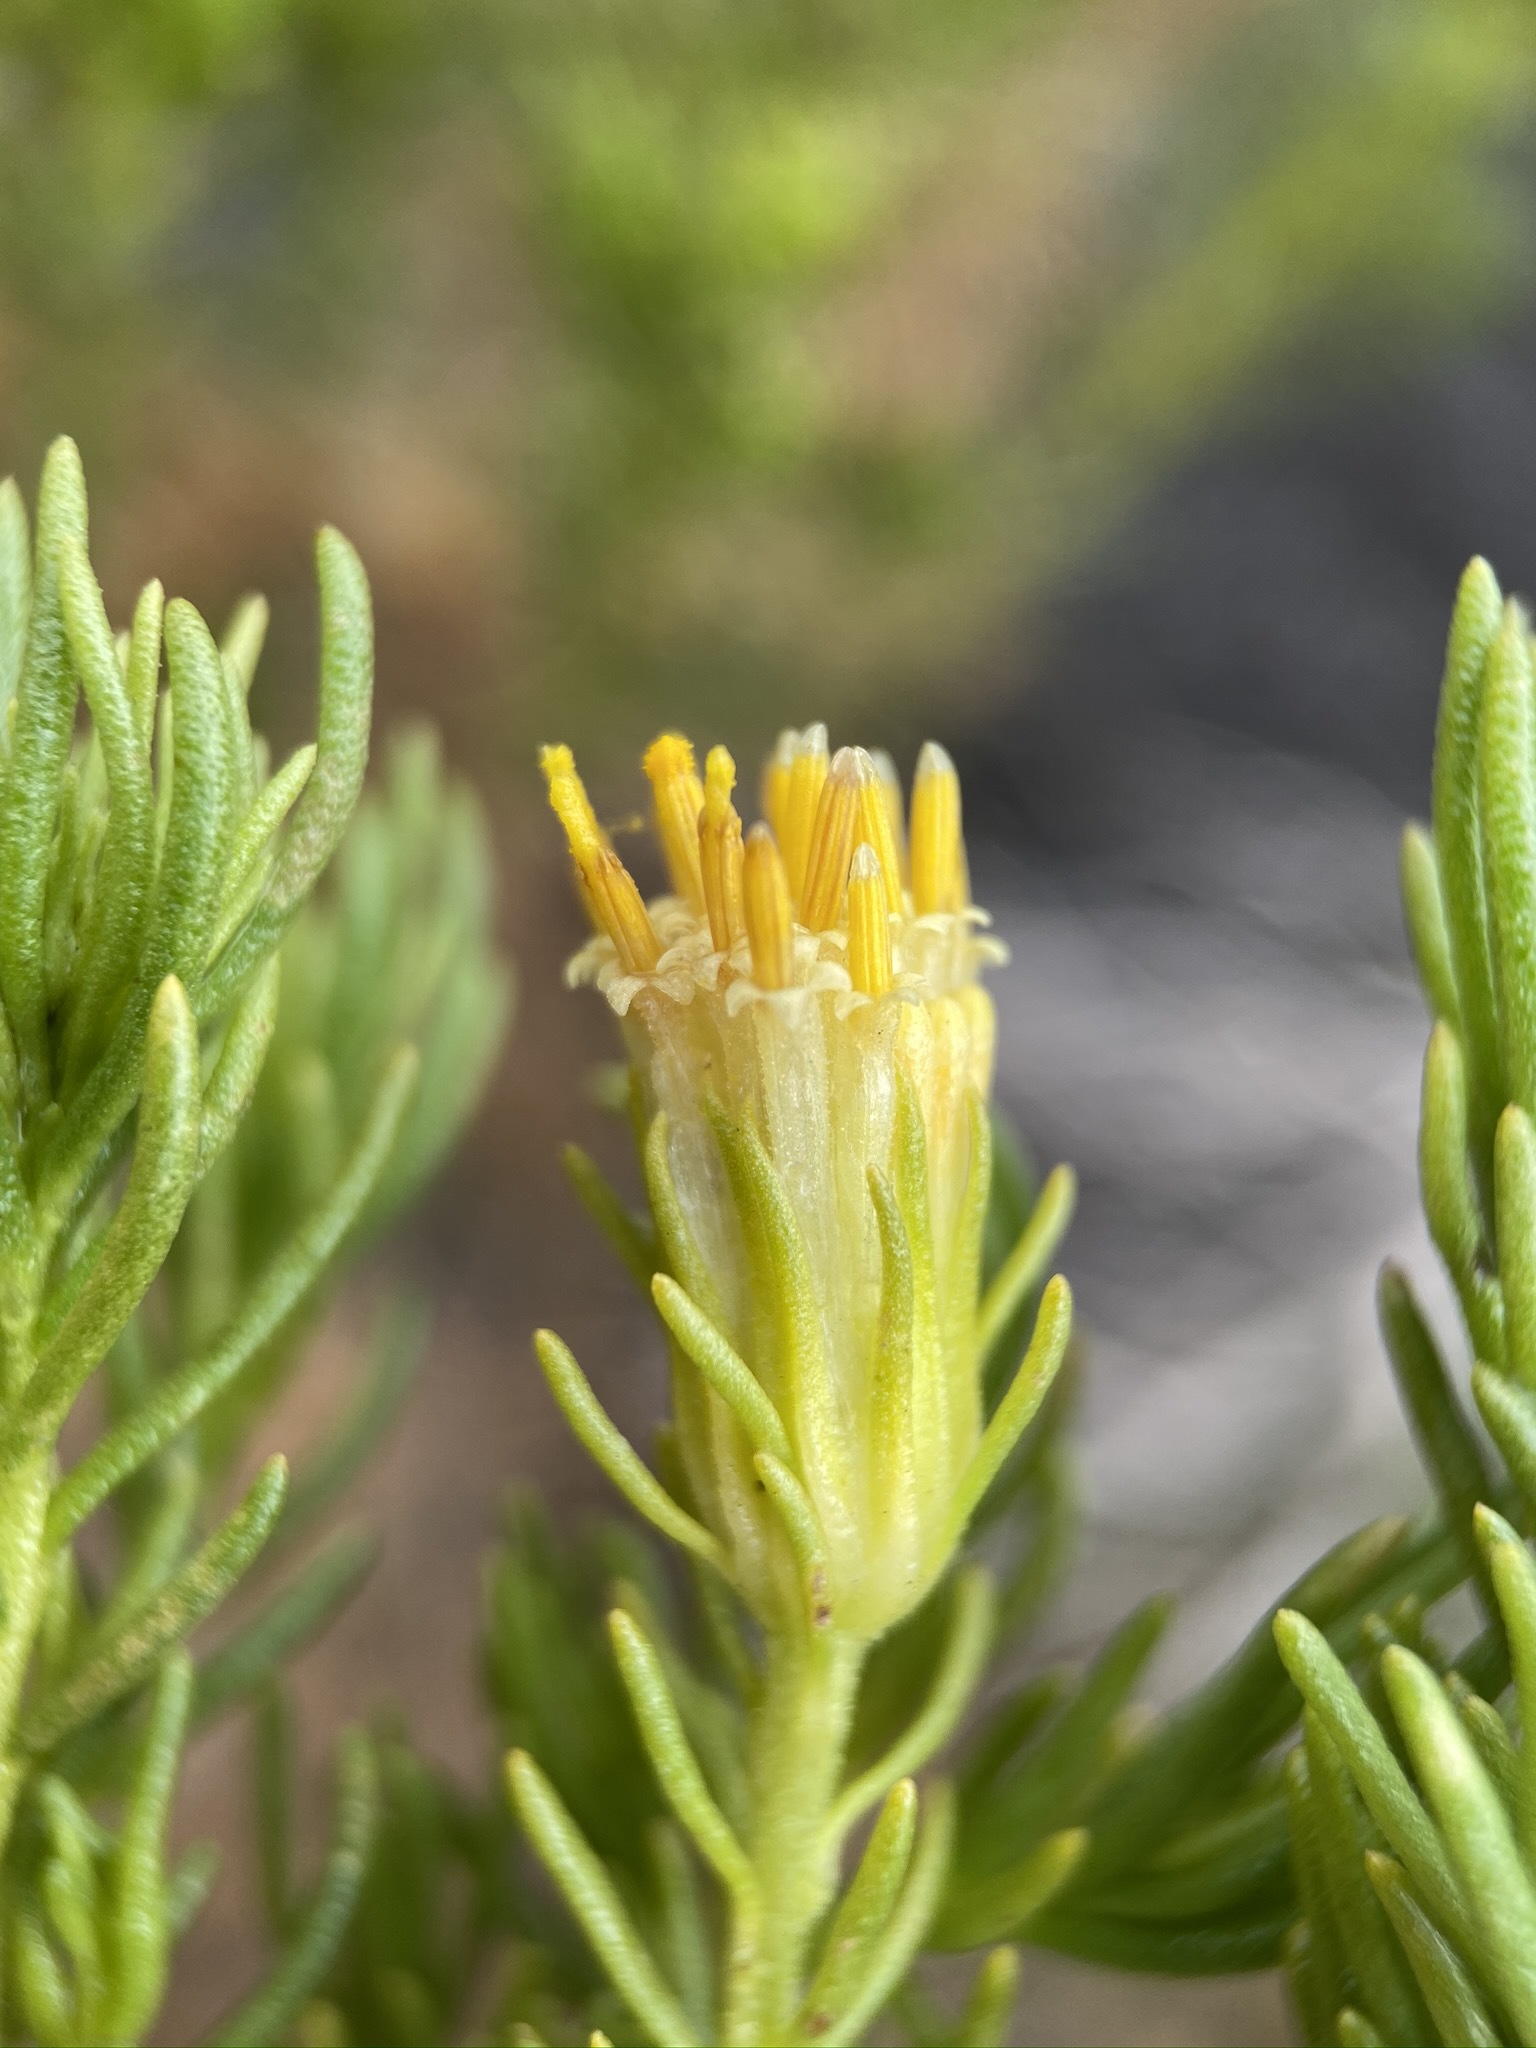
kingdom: Plantae
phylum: Tracheophyta
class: Magnoliopsida
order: Asterales
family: Asteraceae
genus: Peucephyllum
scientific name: Peucephyllum schottii
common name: Pygmy-cedar
